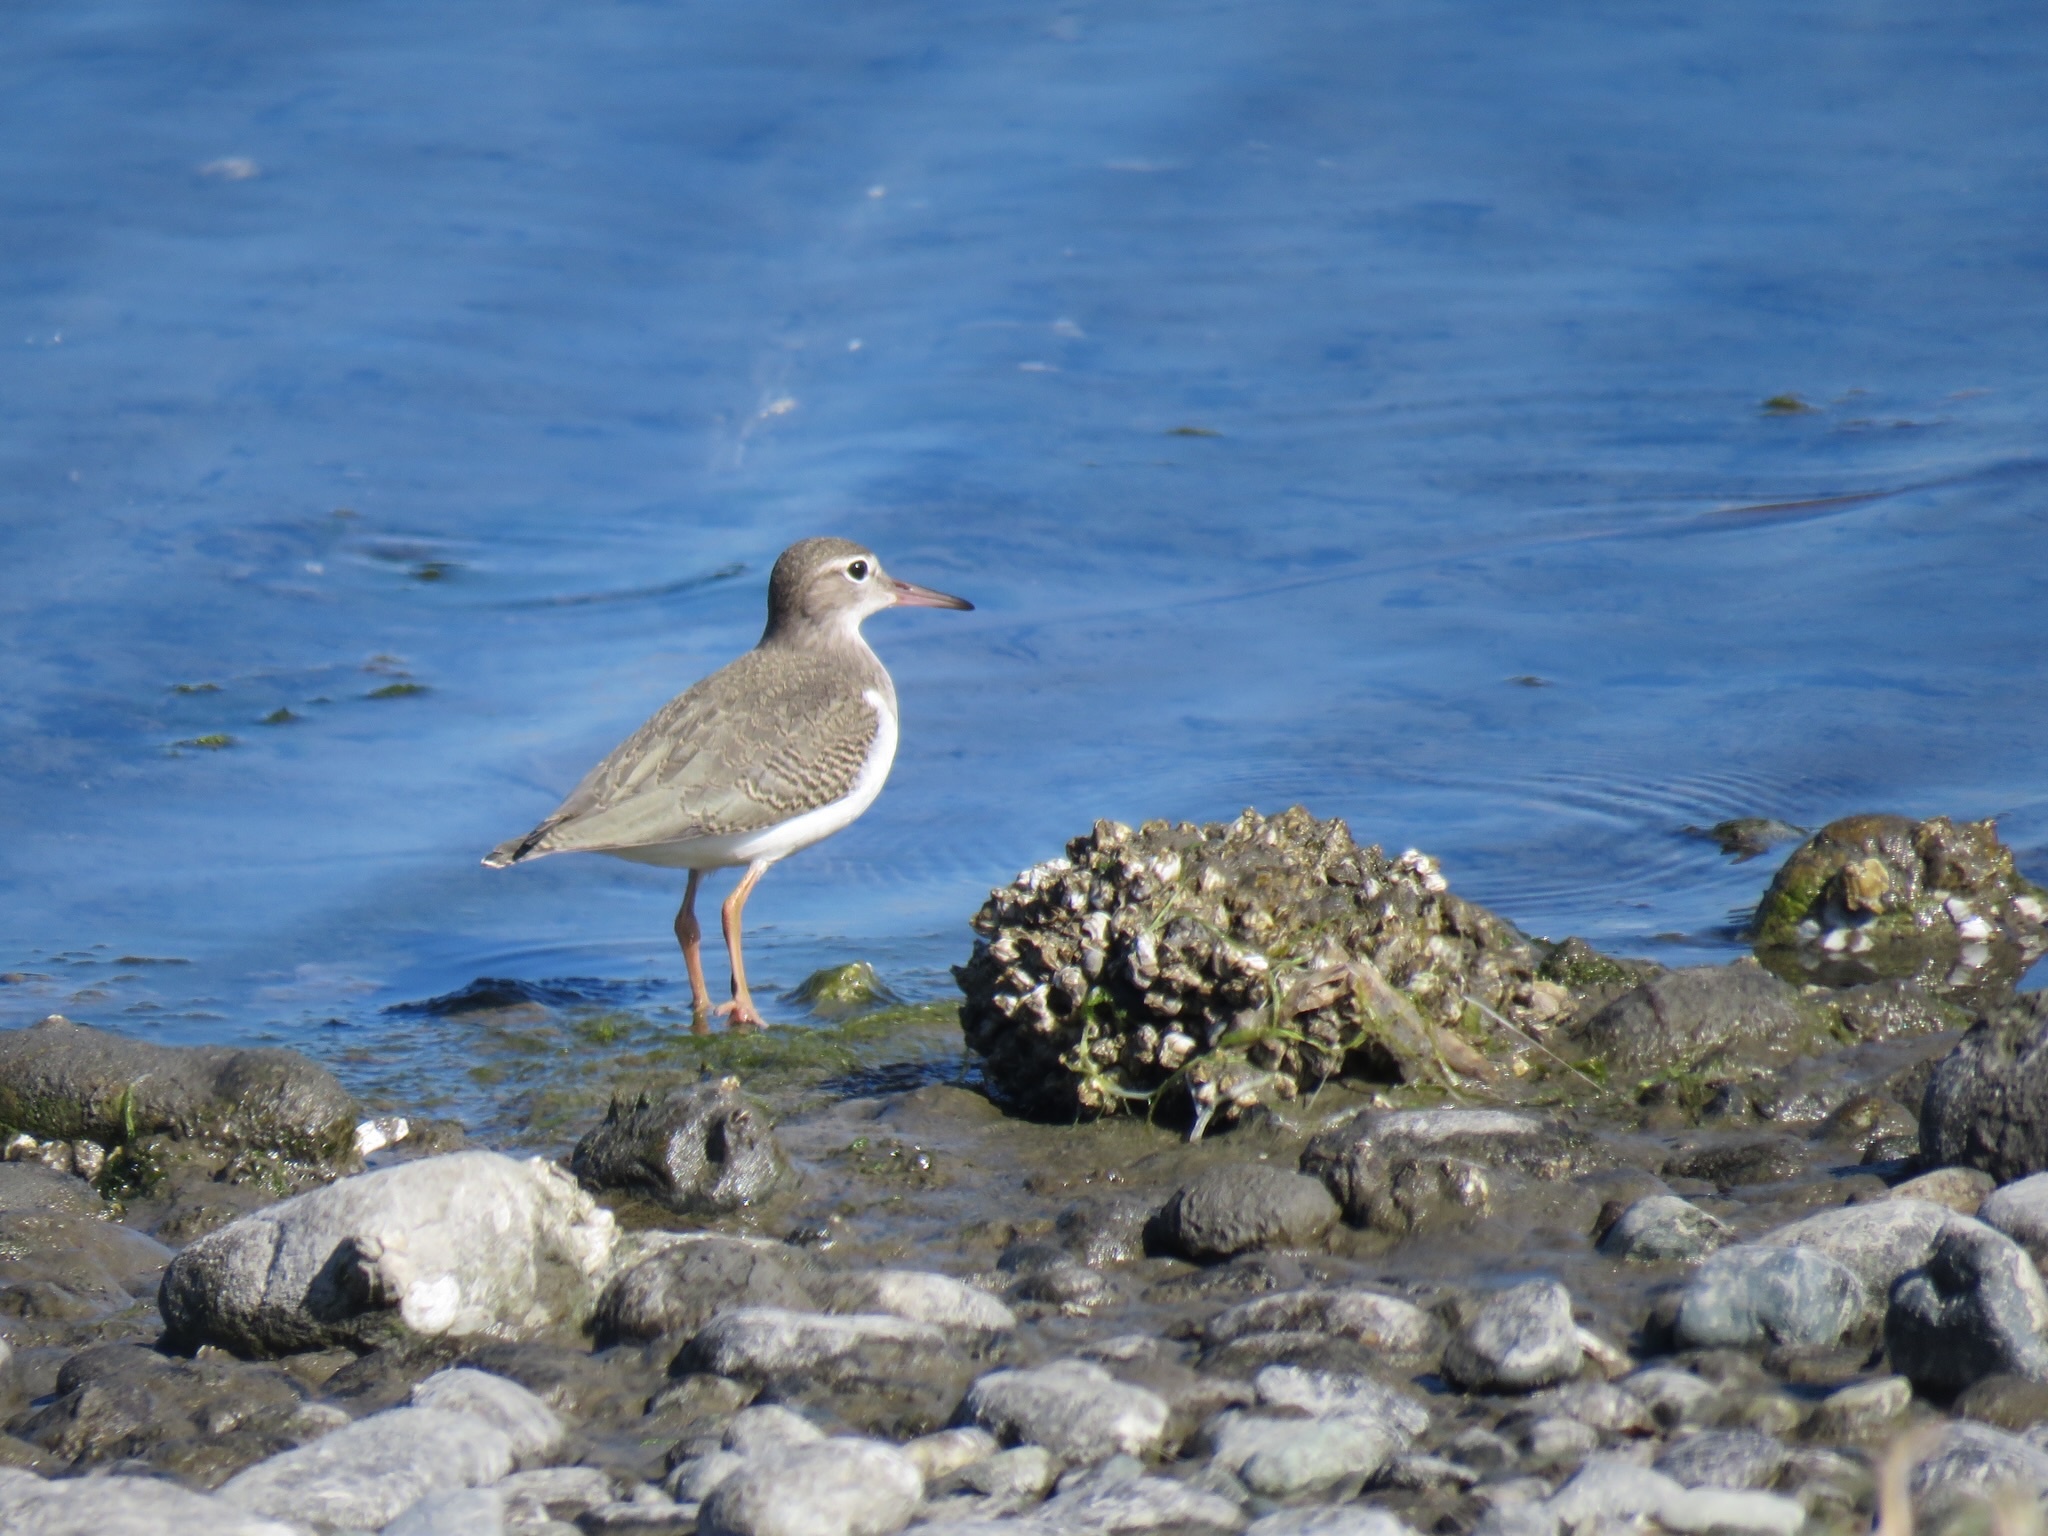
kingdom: Animalia
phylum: Chordata
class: Aves
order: Charadriiformes
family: Scolopacidae
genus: Actitis
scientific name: Actitis macularius
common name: Spotted sandpiper
